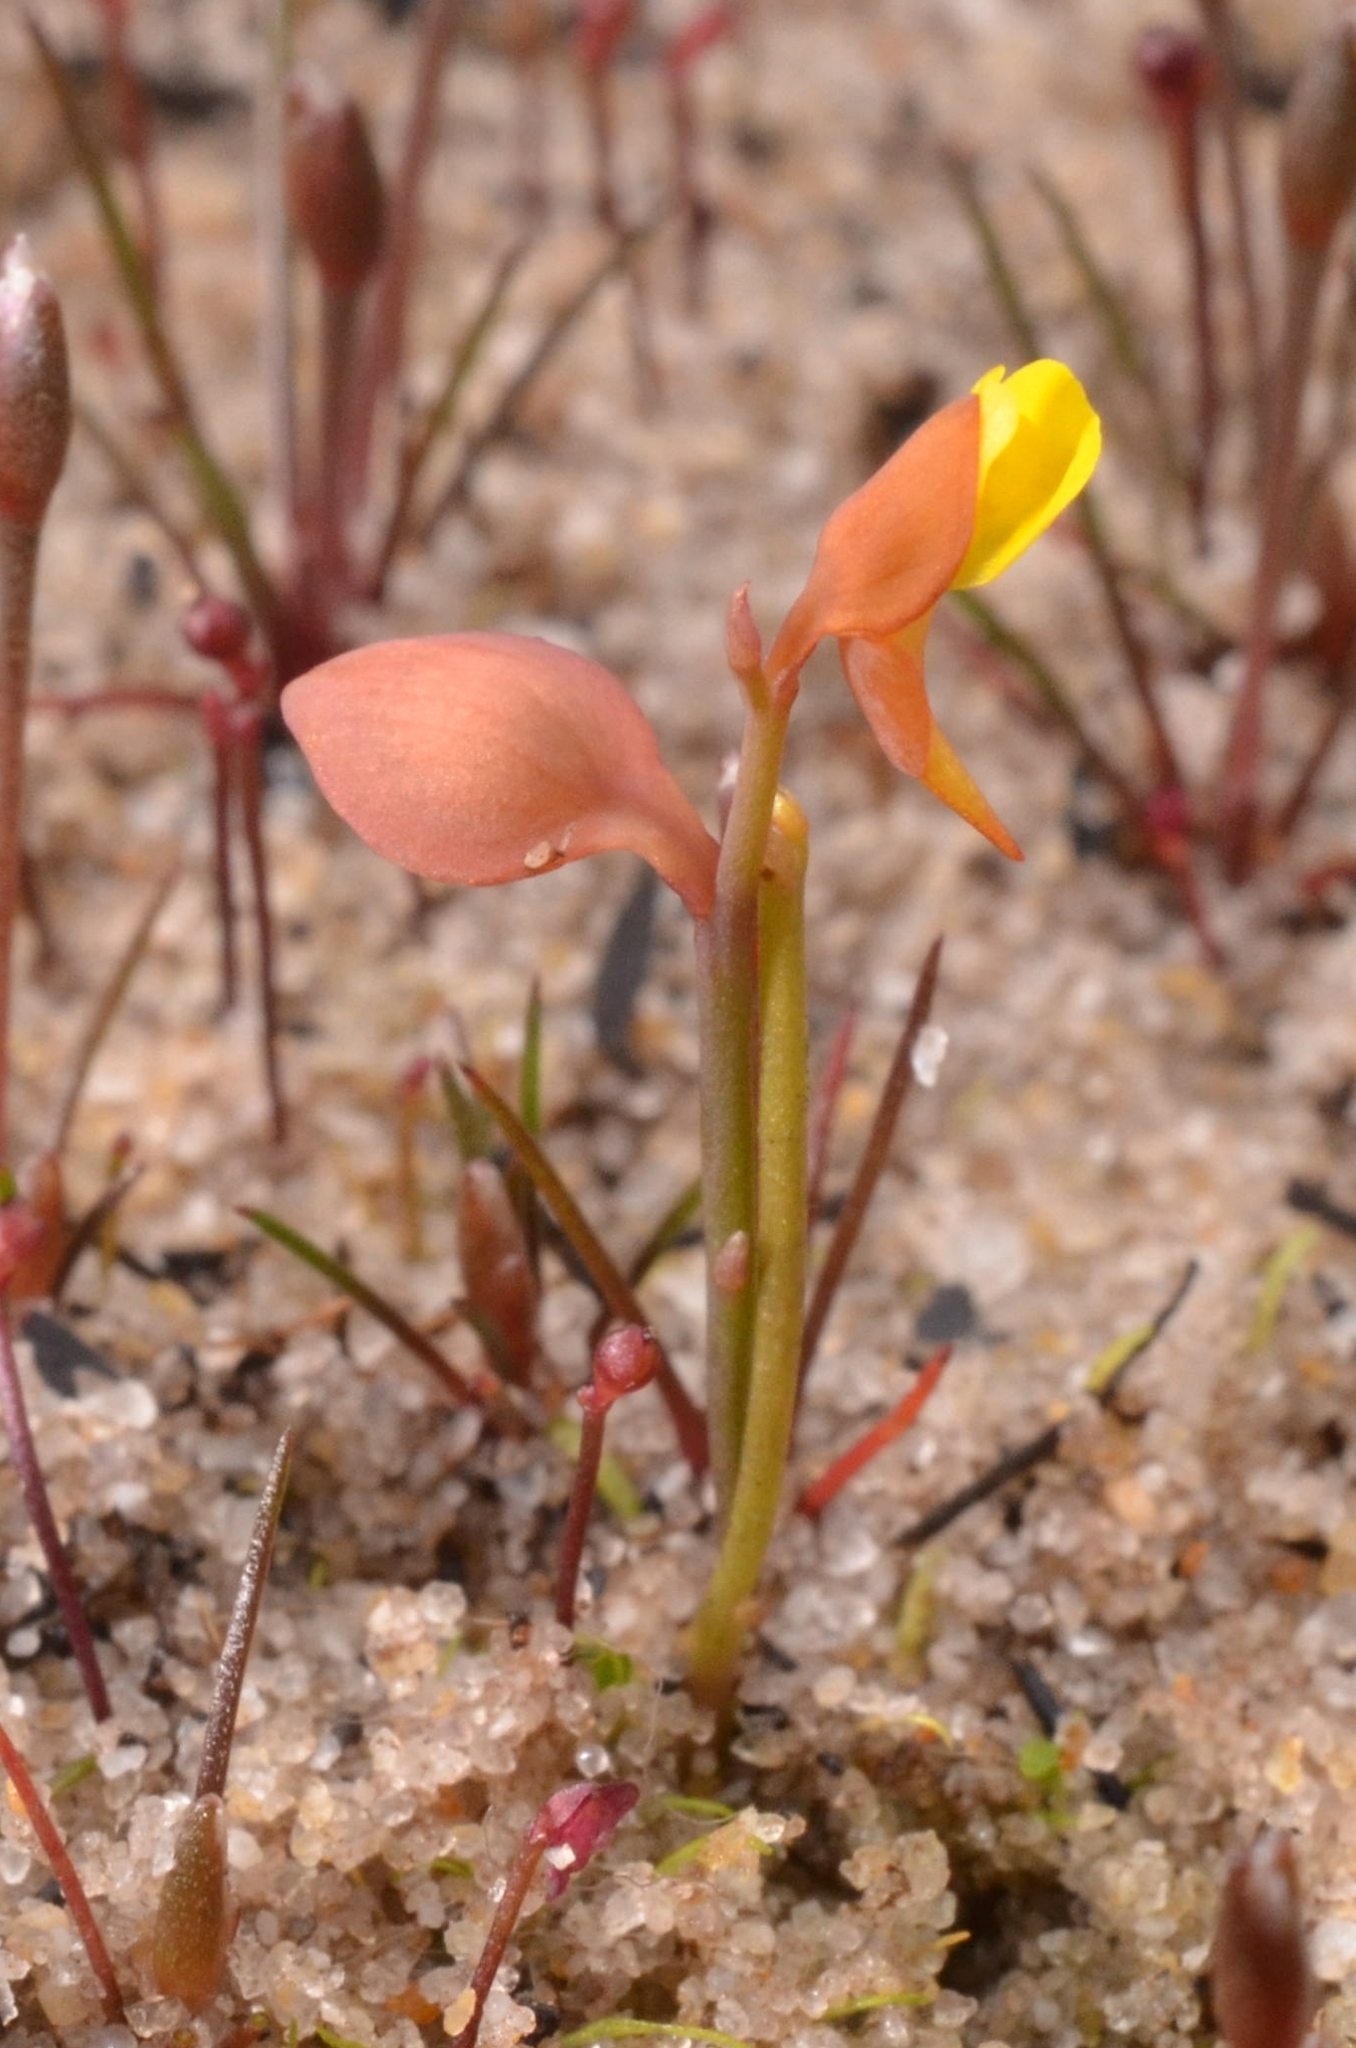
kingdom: Plantae
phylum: Tracheophyta
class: Magnoliopsida
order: Lamiales
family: Lentibulariaceae
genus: Utricularia
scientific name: Utricularia bifida
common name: Bifid bladderwort
